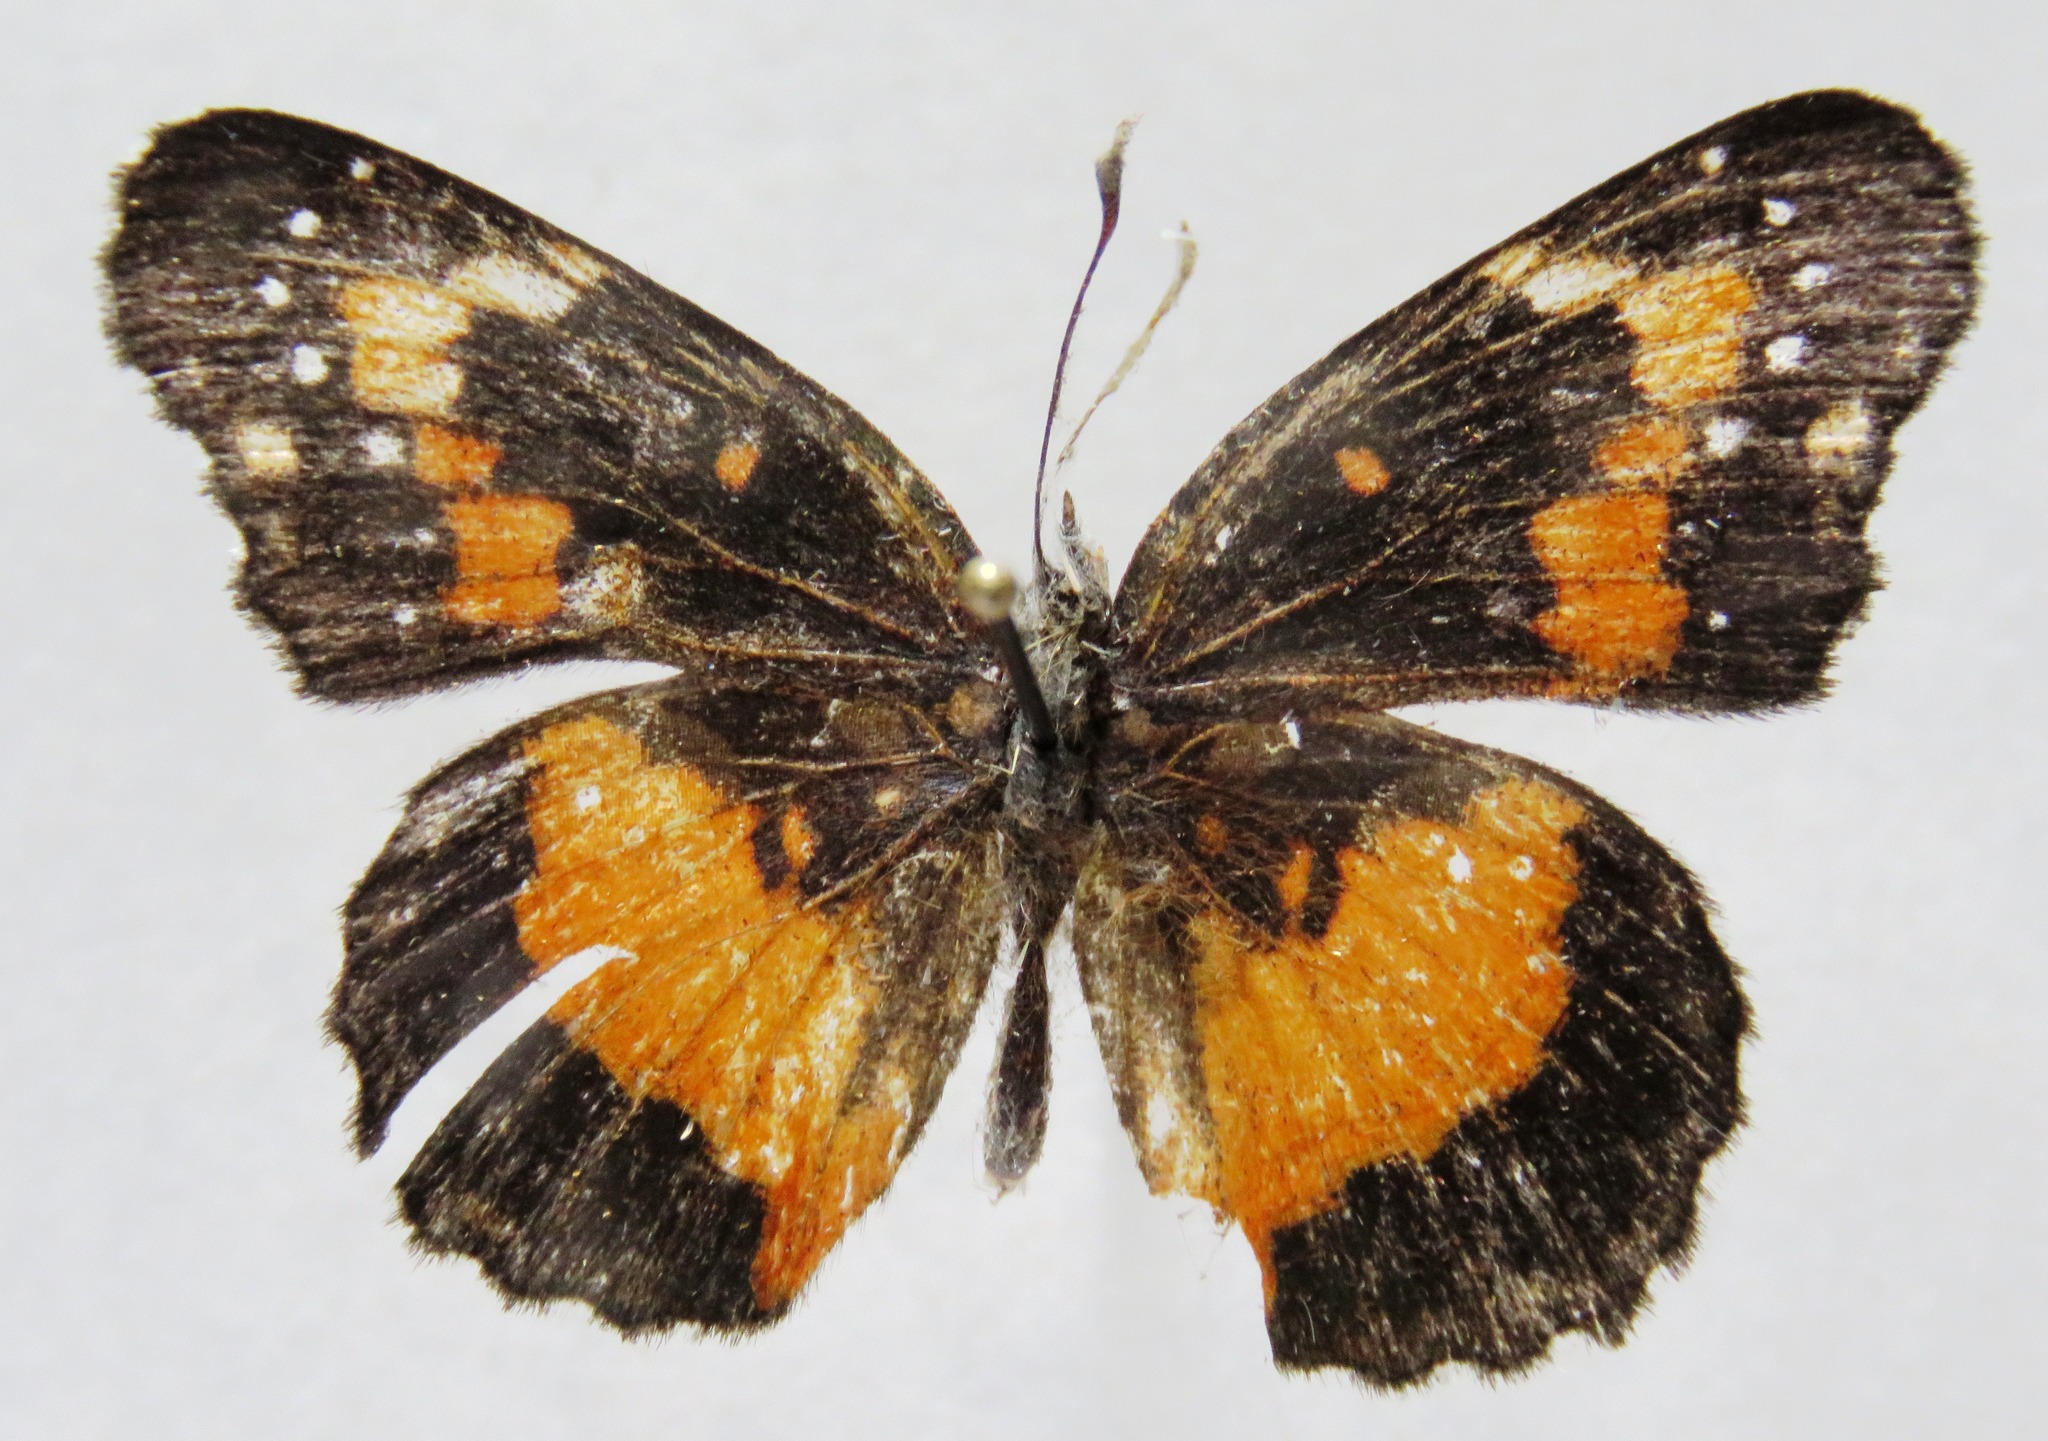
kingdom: Animalia
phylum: Arthropoda
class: Insecta
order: Lepidoptera
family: Nymphalidae
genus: Chlosyne
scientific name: Chlosyne lacinia
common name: Bordered patch
